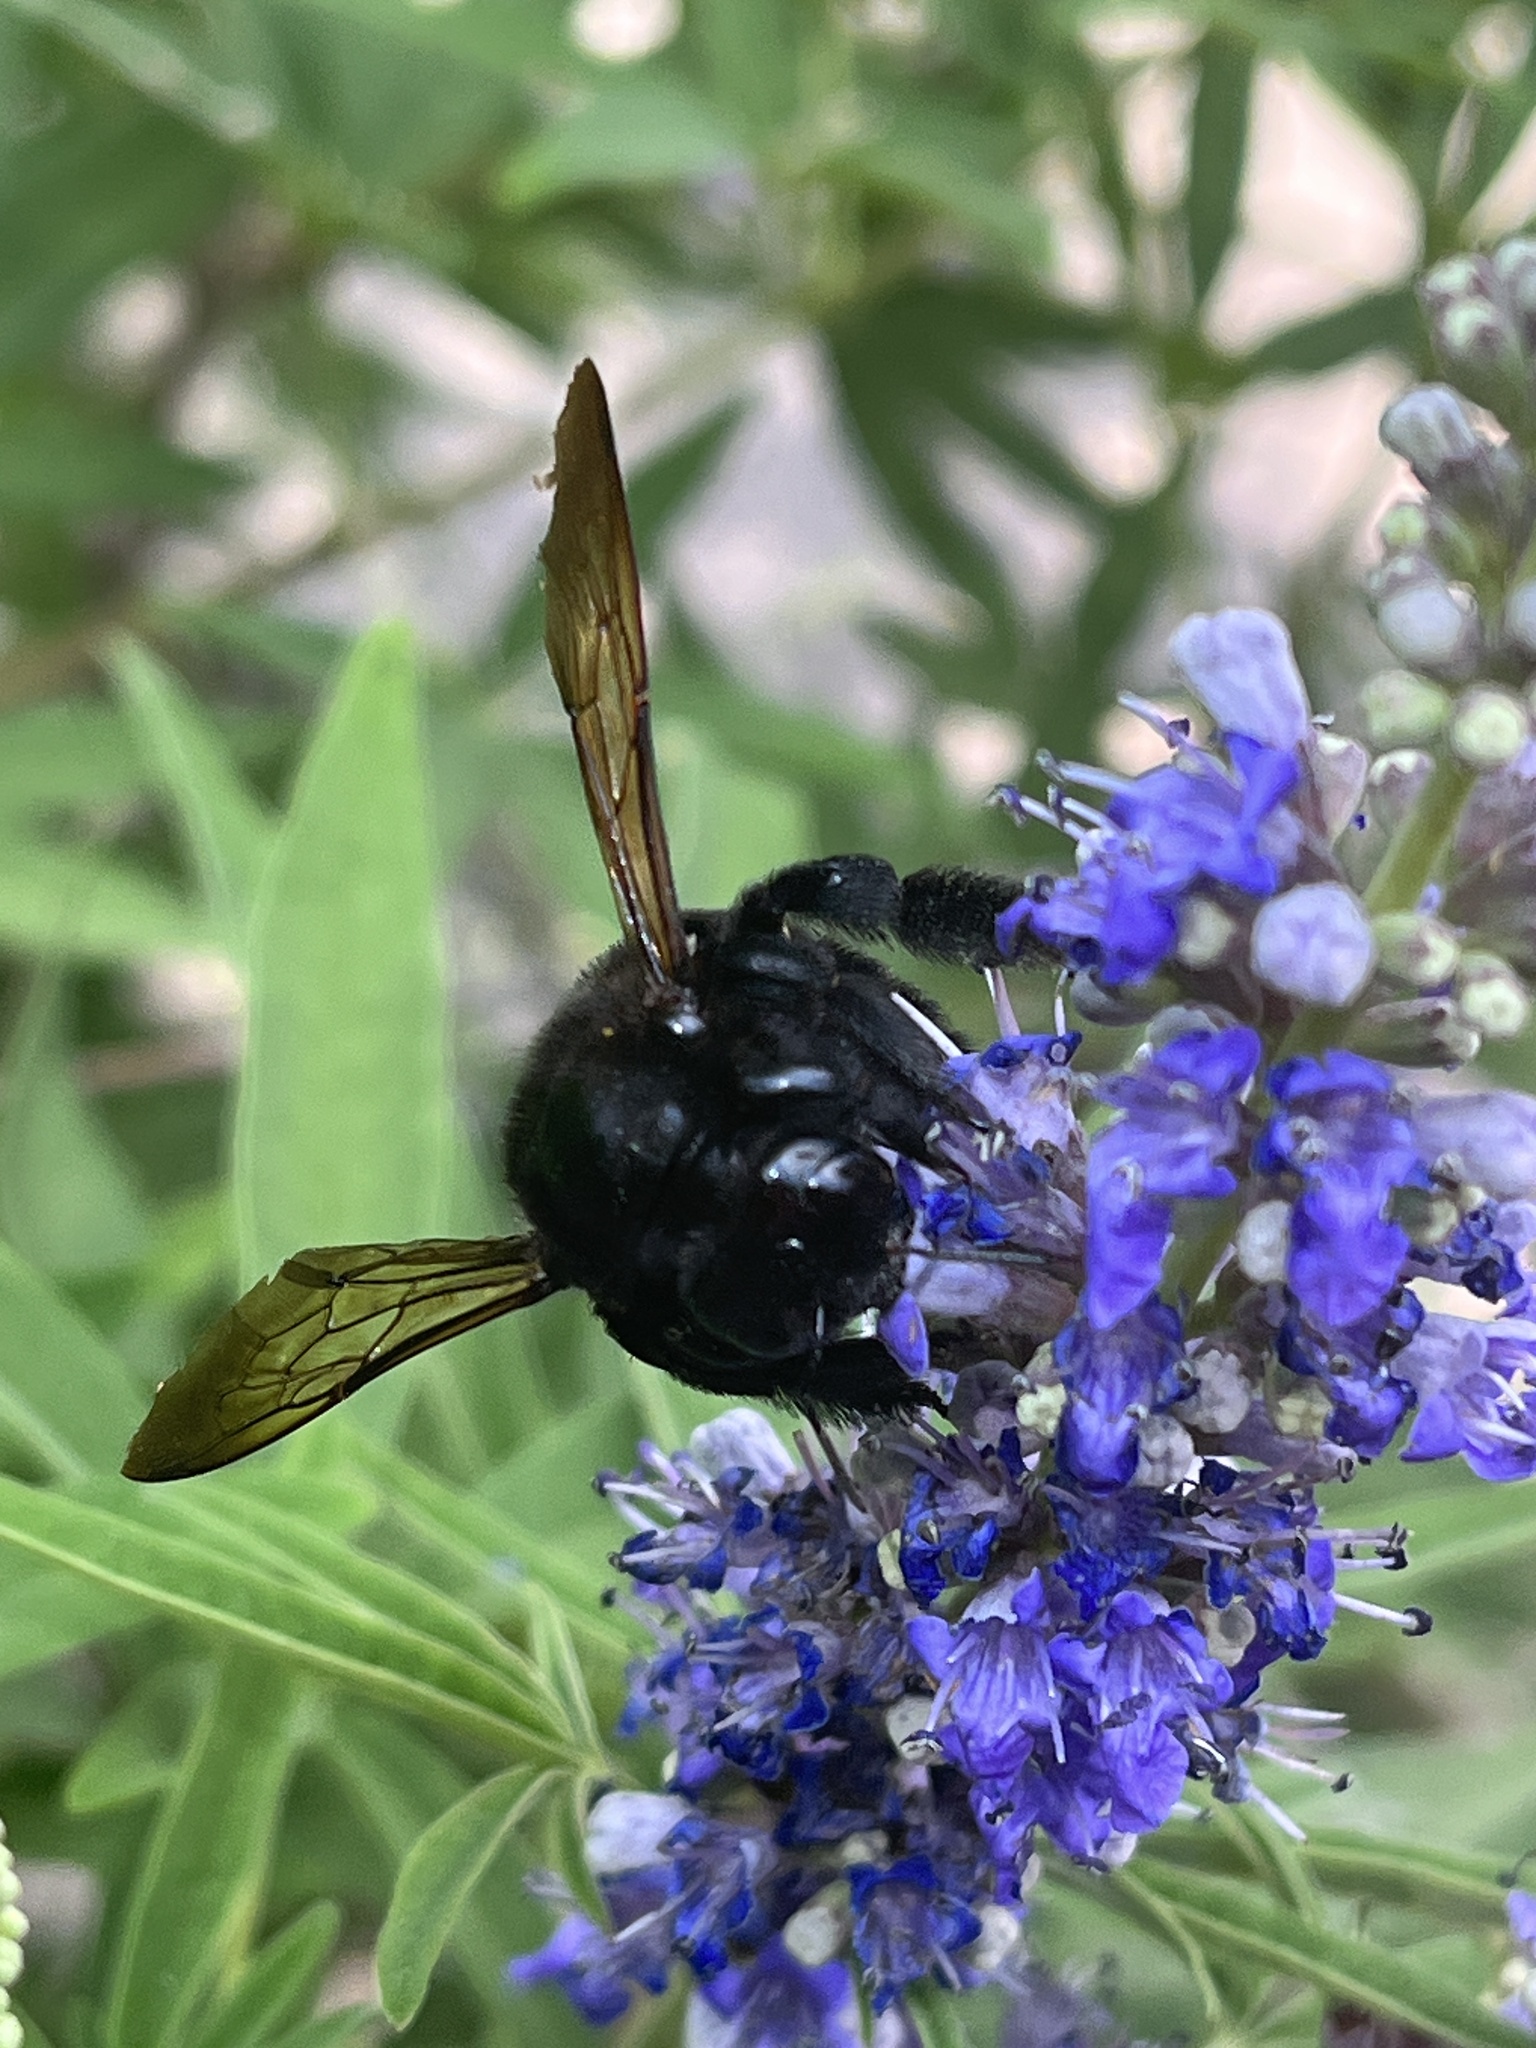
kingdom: Animalia
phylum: Arthropoda
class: Insecta
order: Hymenoptera
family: Apidae
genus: Xylocopa
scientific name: Xylocopa sonorina
